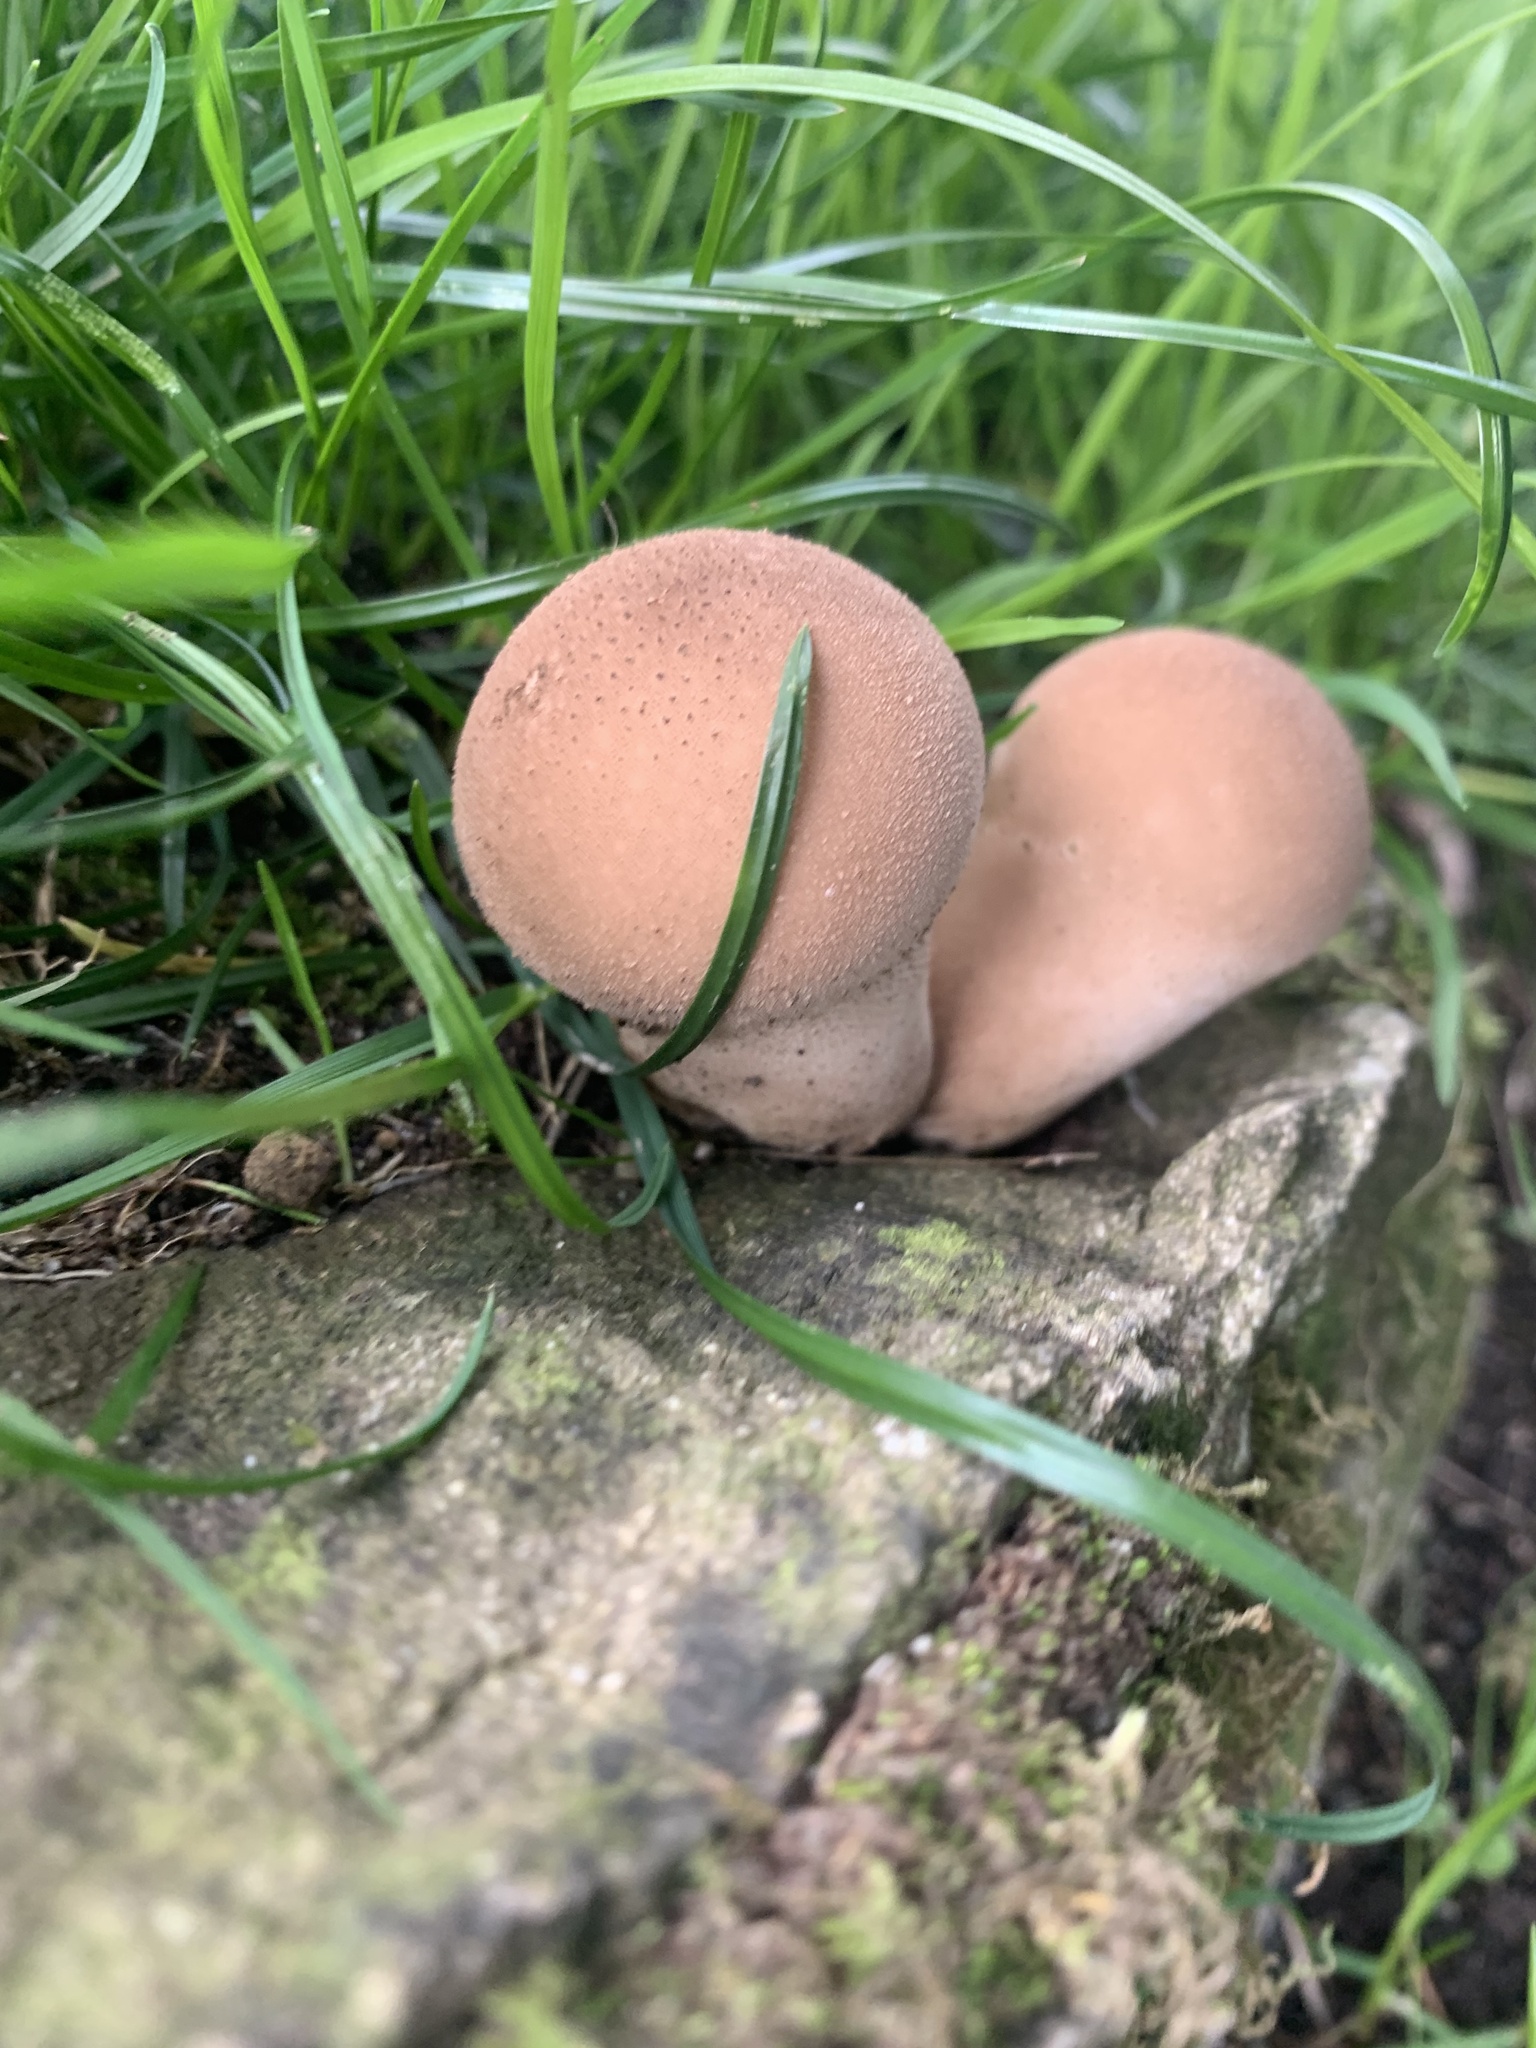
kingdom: Fungi
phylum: Basidiomycota
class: Agaricomycetes
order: Agaricales
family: Lycoperdaceae
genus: Apioperdon
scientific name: Apioperdon pyriforme
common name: Pear-shaped puffball
